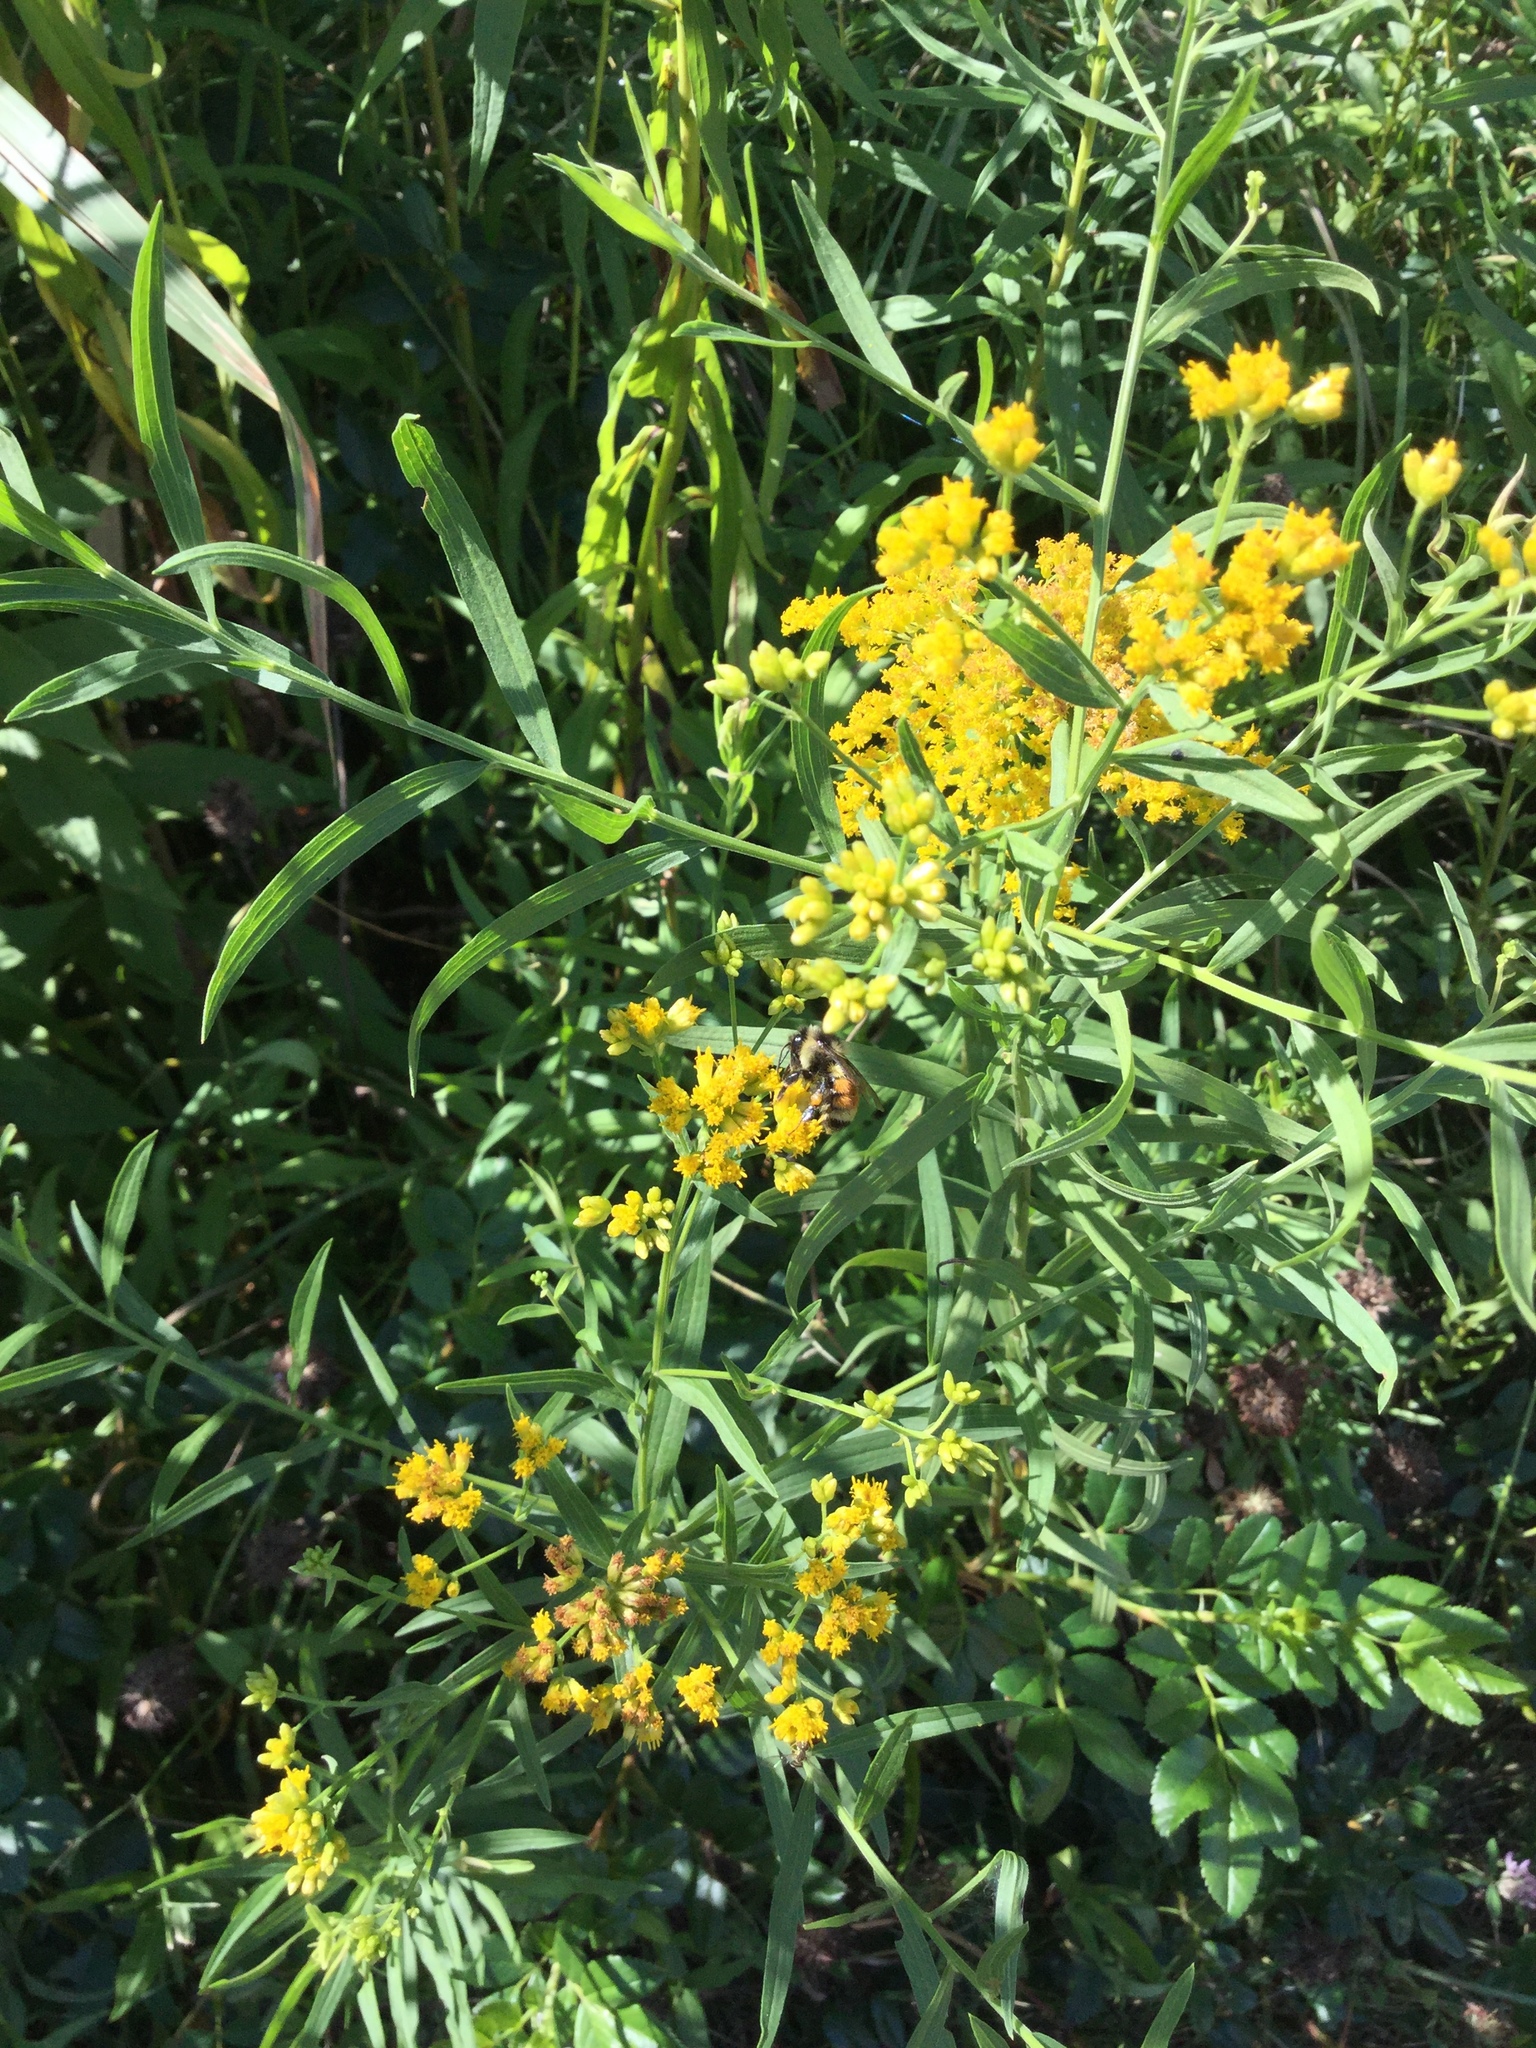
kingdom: Animalia
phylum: Arthropoda
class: Insecta
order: Hymenoptera
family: Apidae
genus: Bombus
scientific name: Bombus ternarius
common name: Tri-colored bumble bee
